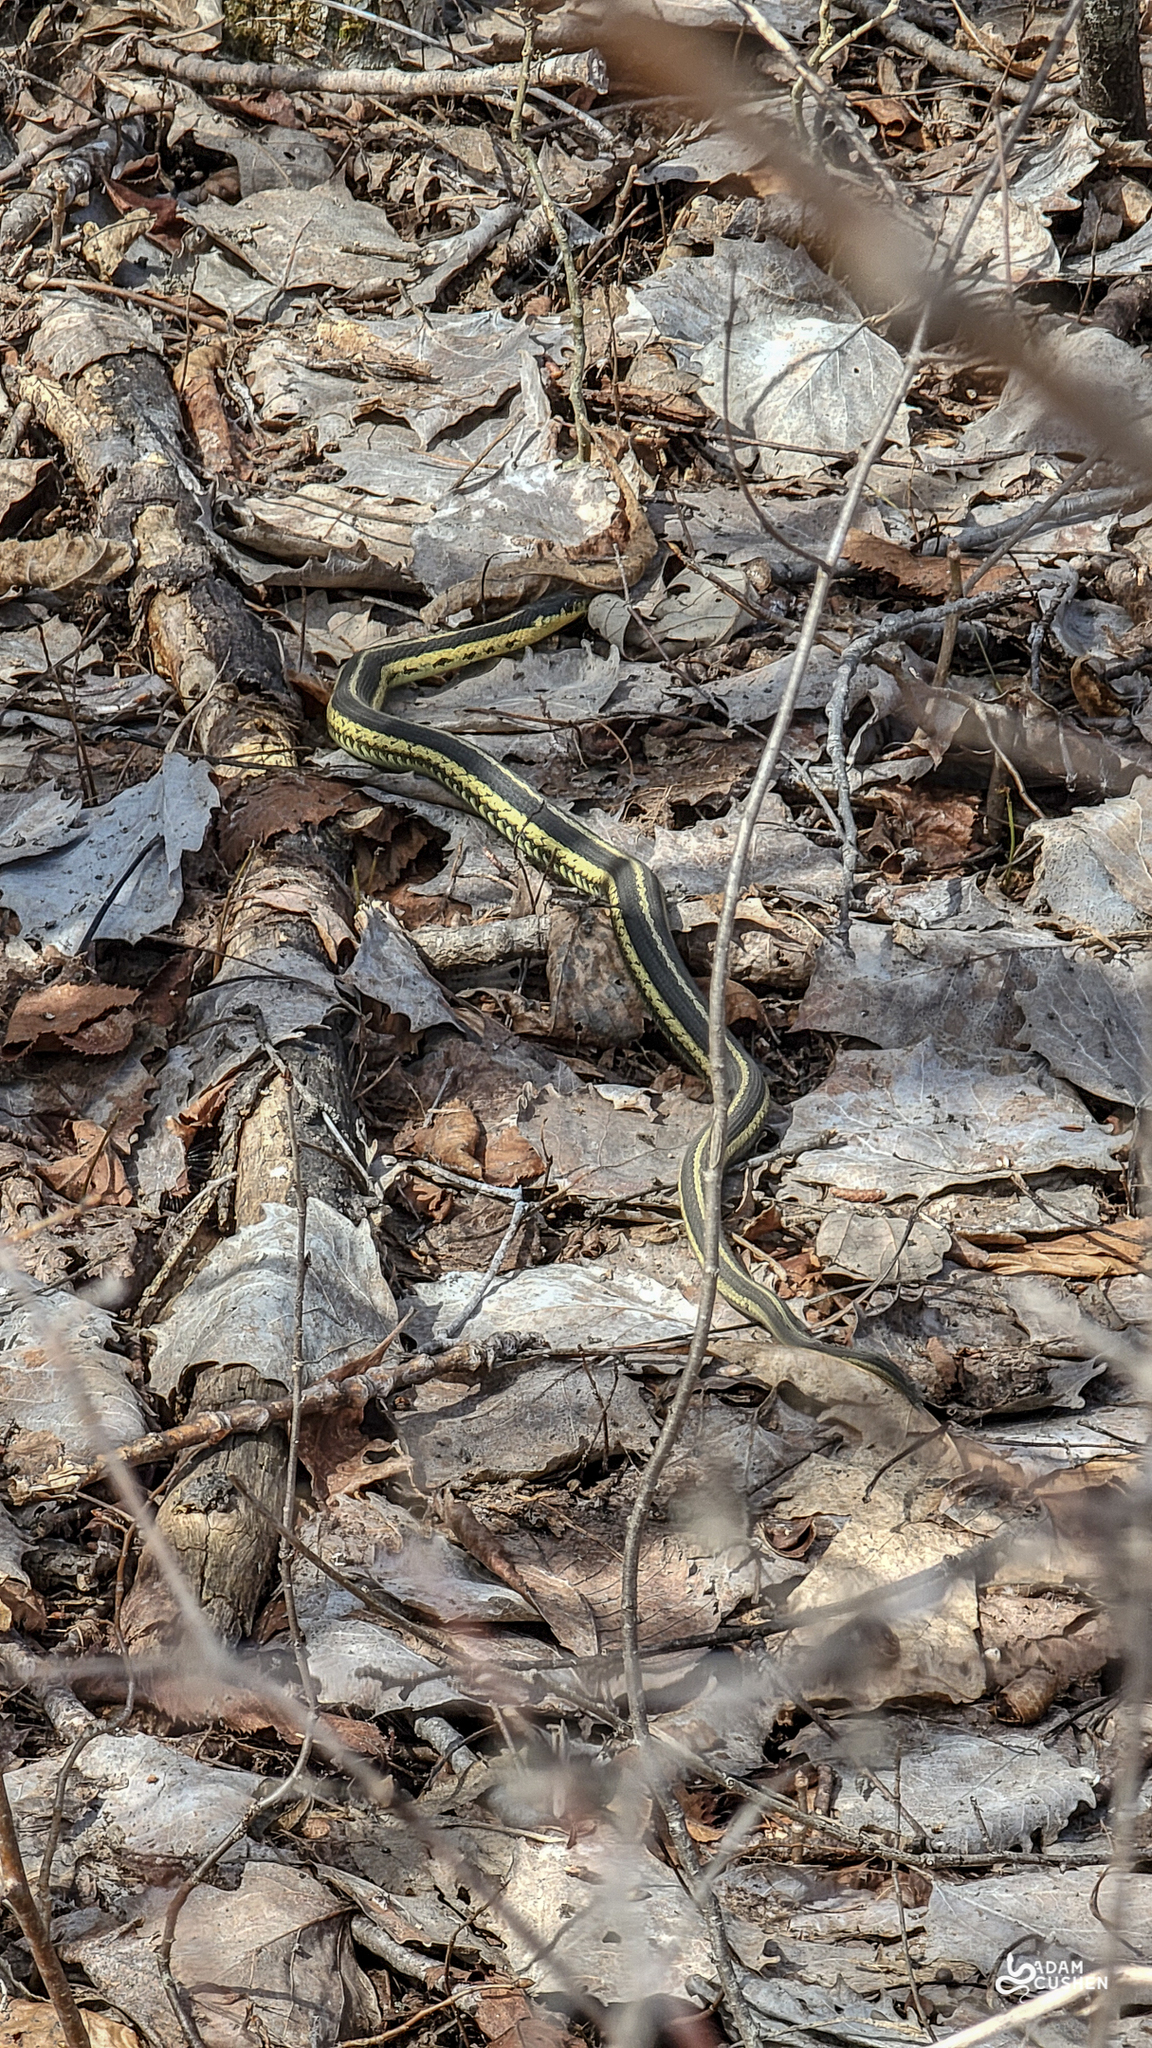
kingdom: Animalia
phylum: Chordata
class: Squamata
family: Colubridae
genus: Thamnophis
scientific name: Thamnophis sirtalis
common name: Common garter snake
